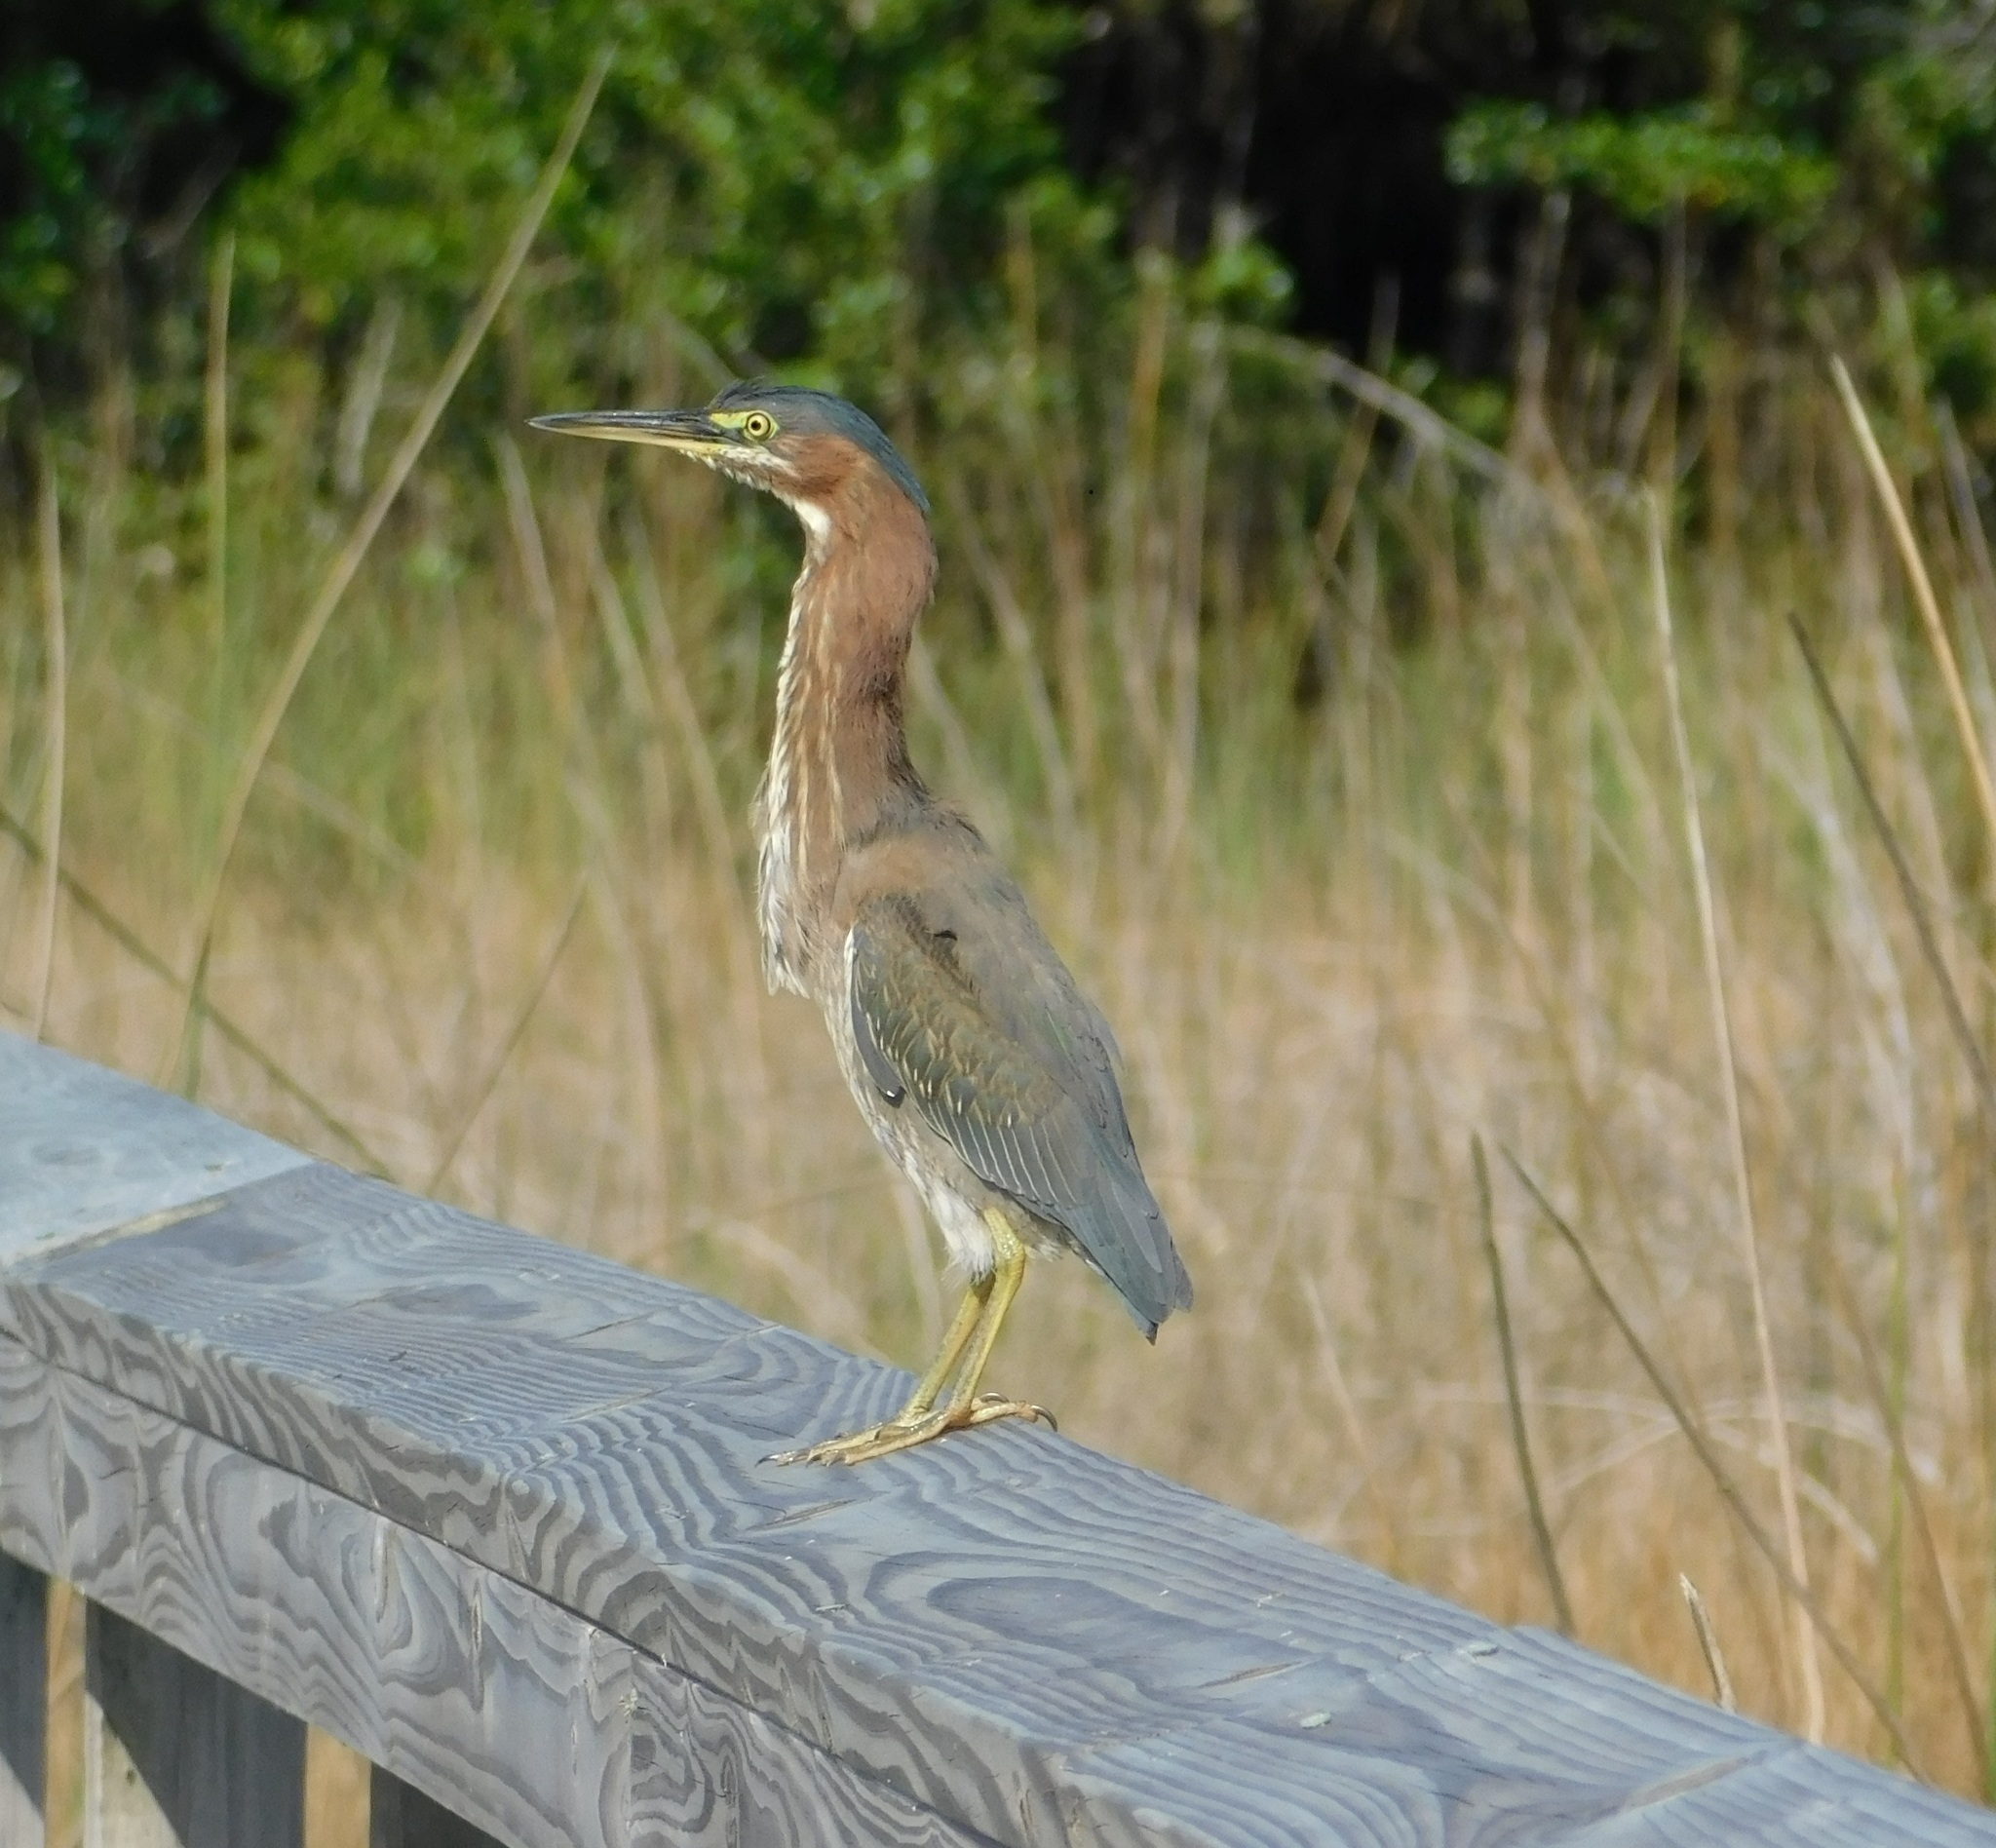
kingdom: Animalia
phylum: Chordata
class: Aves
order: Pelecaniformes
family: Ardeidae
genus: Butorides
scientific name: Butorides virescens
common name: Green heron
